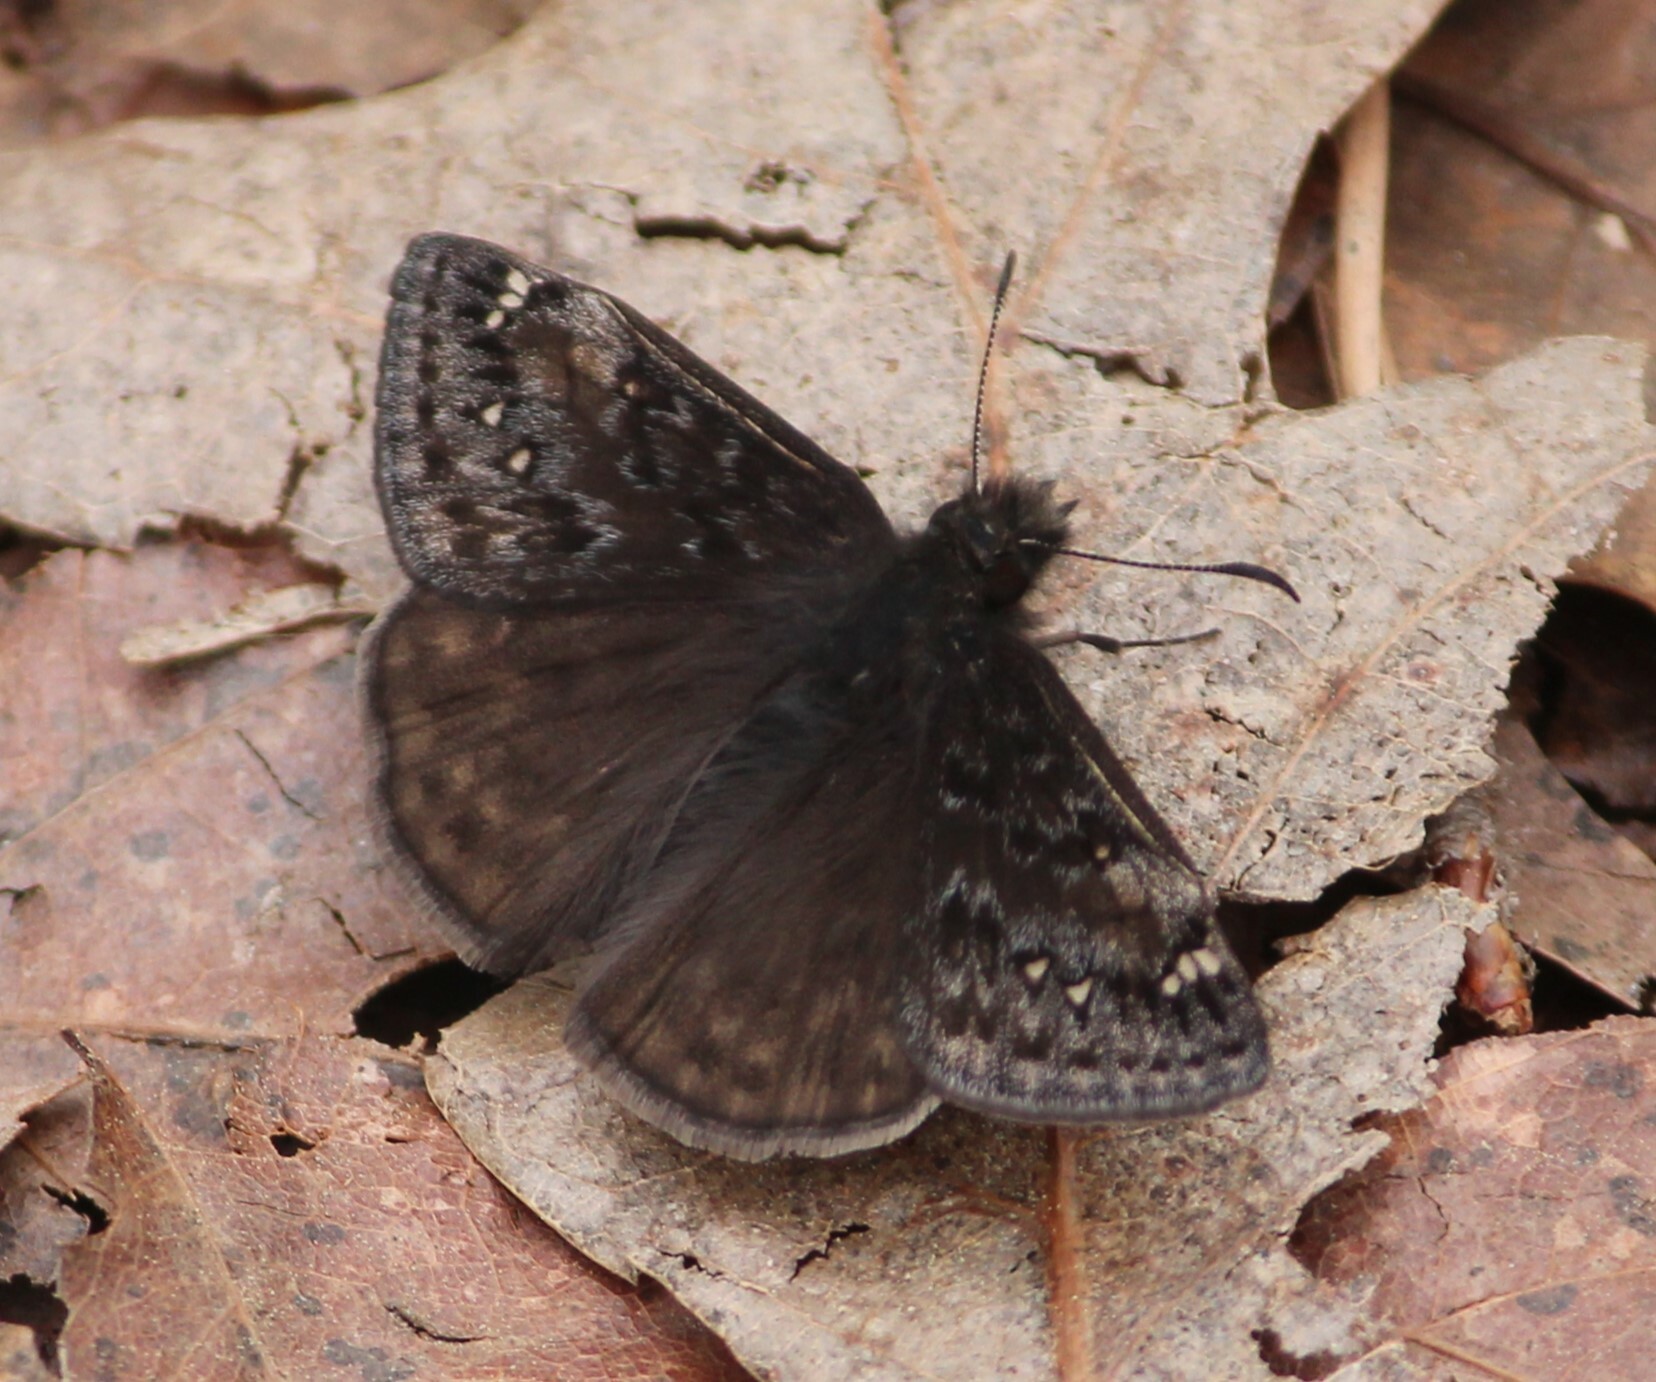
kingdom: Animalia
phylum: Arthropoda
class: Insecta
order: Lepidoptera
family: Hesperiidae
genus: Erynnis
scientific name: Erynnis juvenalis
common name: Juvenal's duskywing
